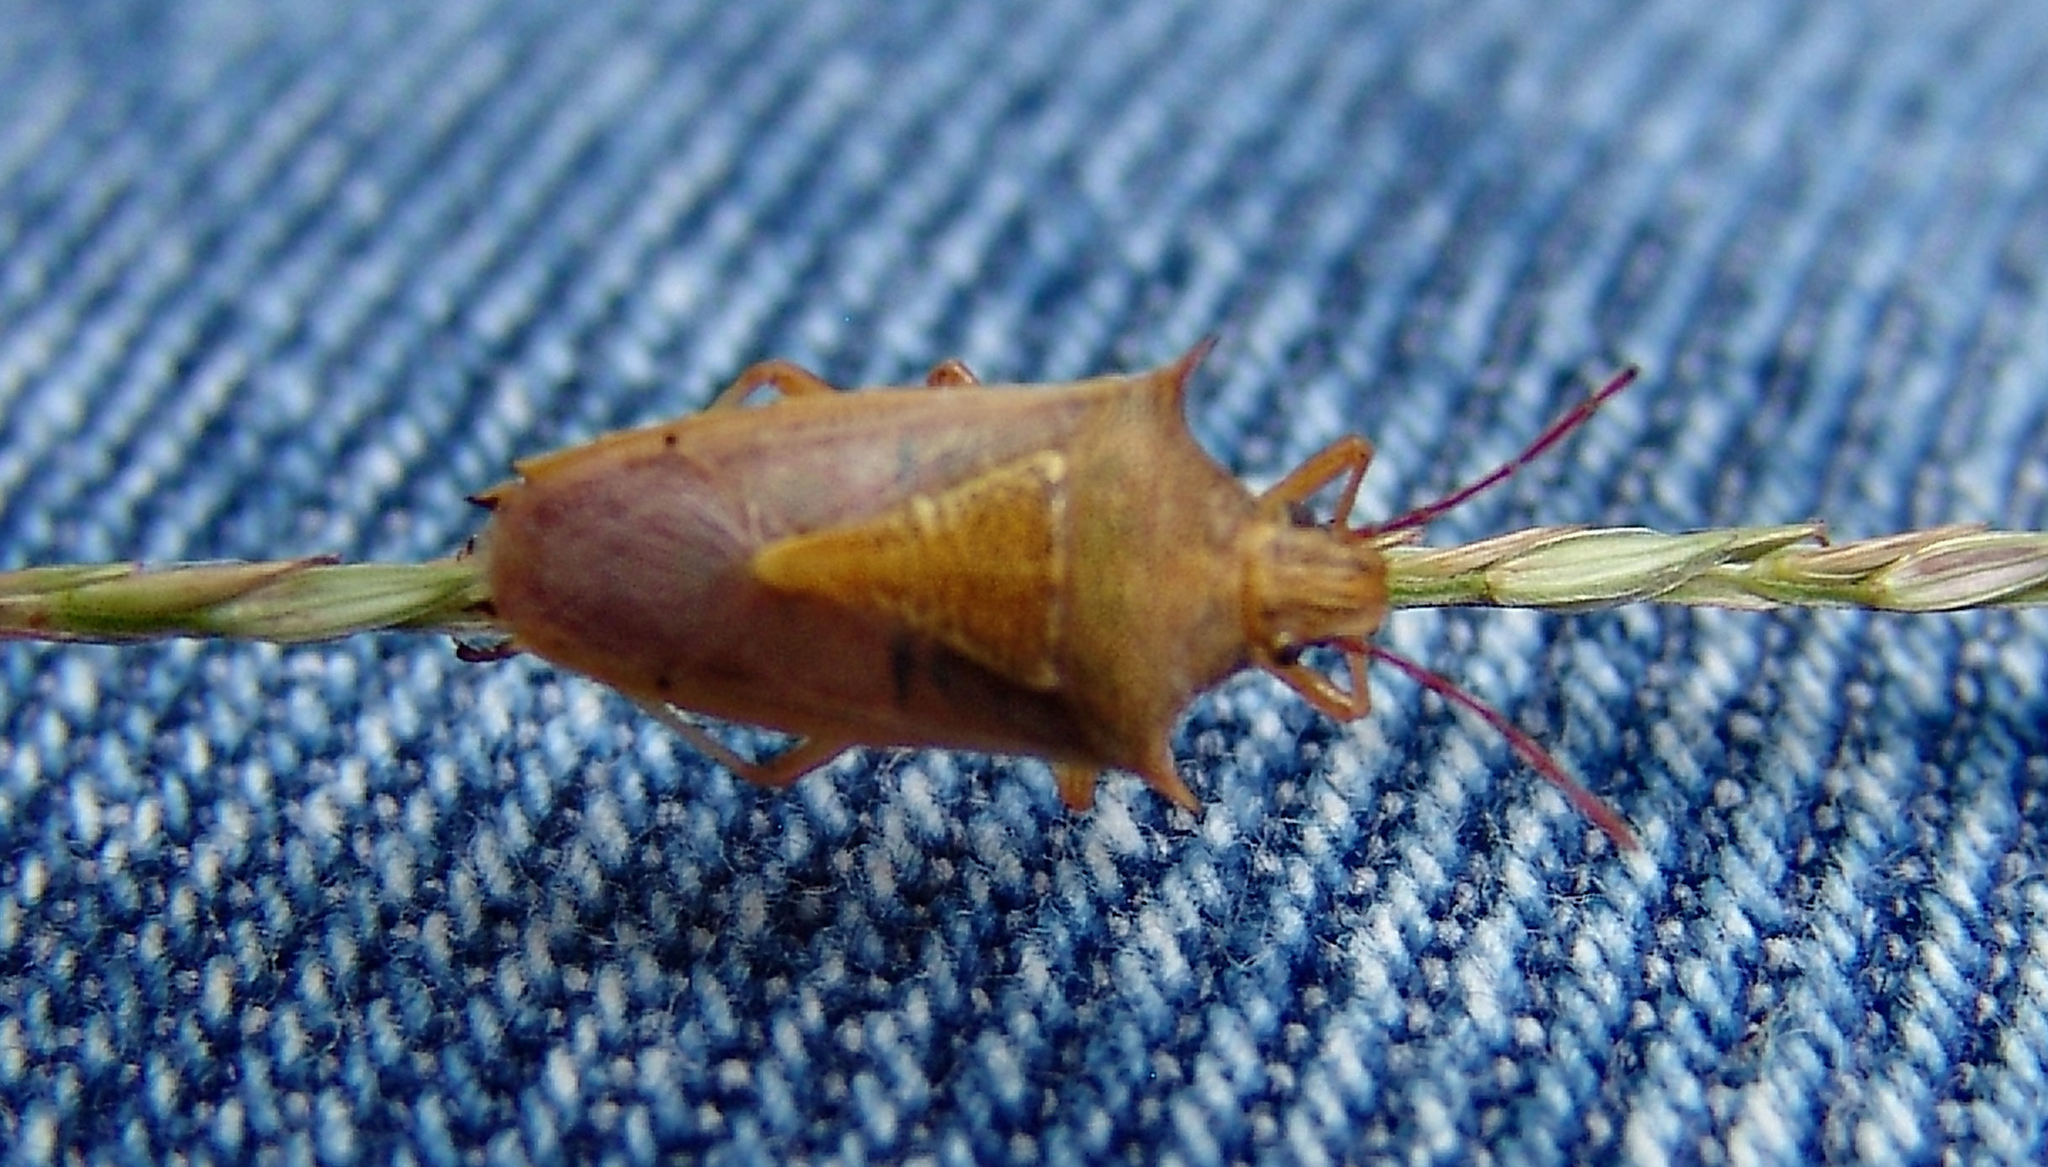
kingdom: Animalia
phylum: Arthropoda
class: Insecta
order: Hemiptera
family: Pentatomidae
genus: Oebalus
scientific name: Oebalus pugnax
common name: Rice stink bug
